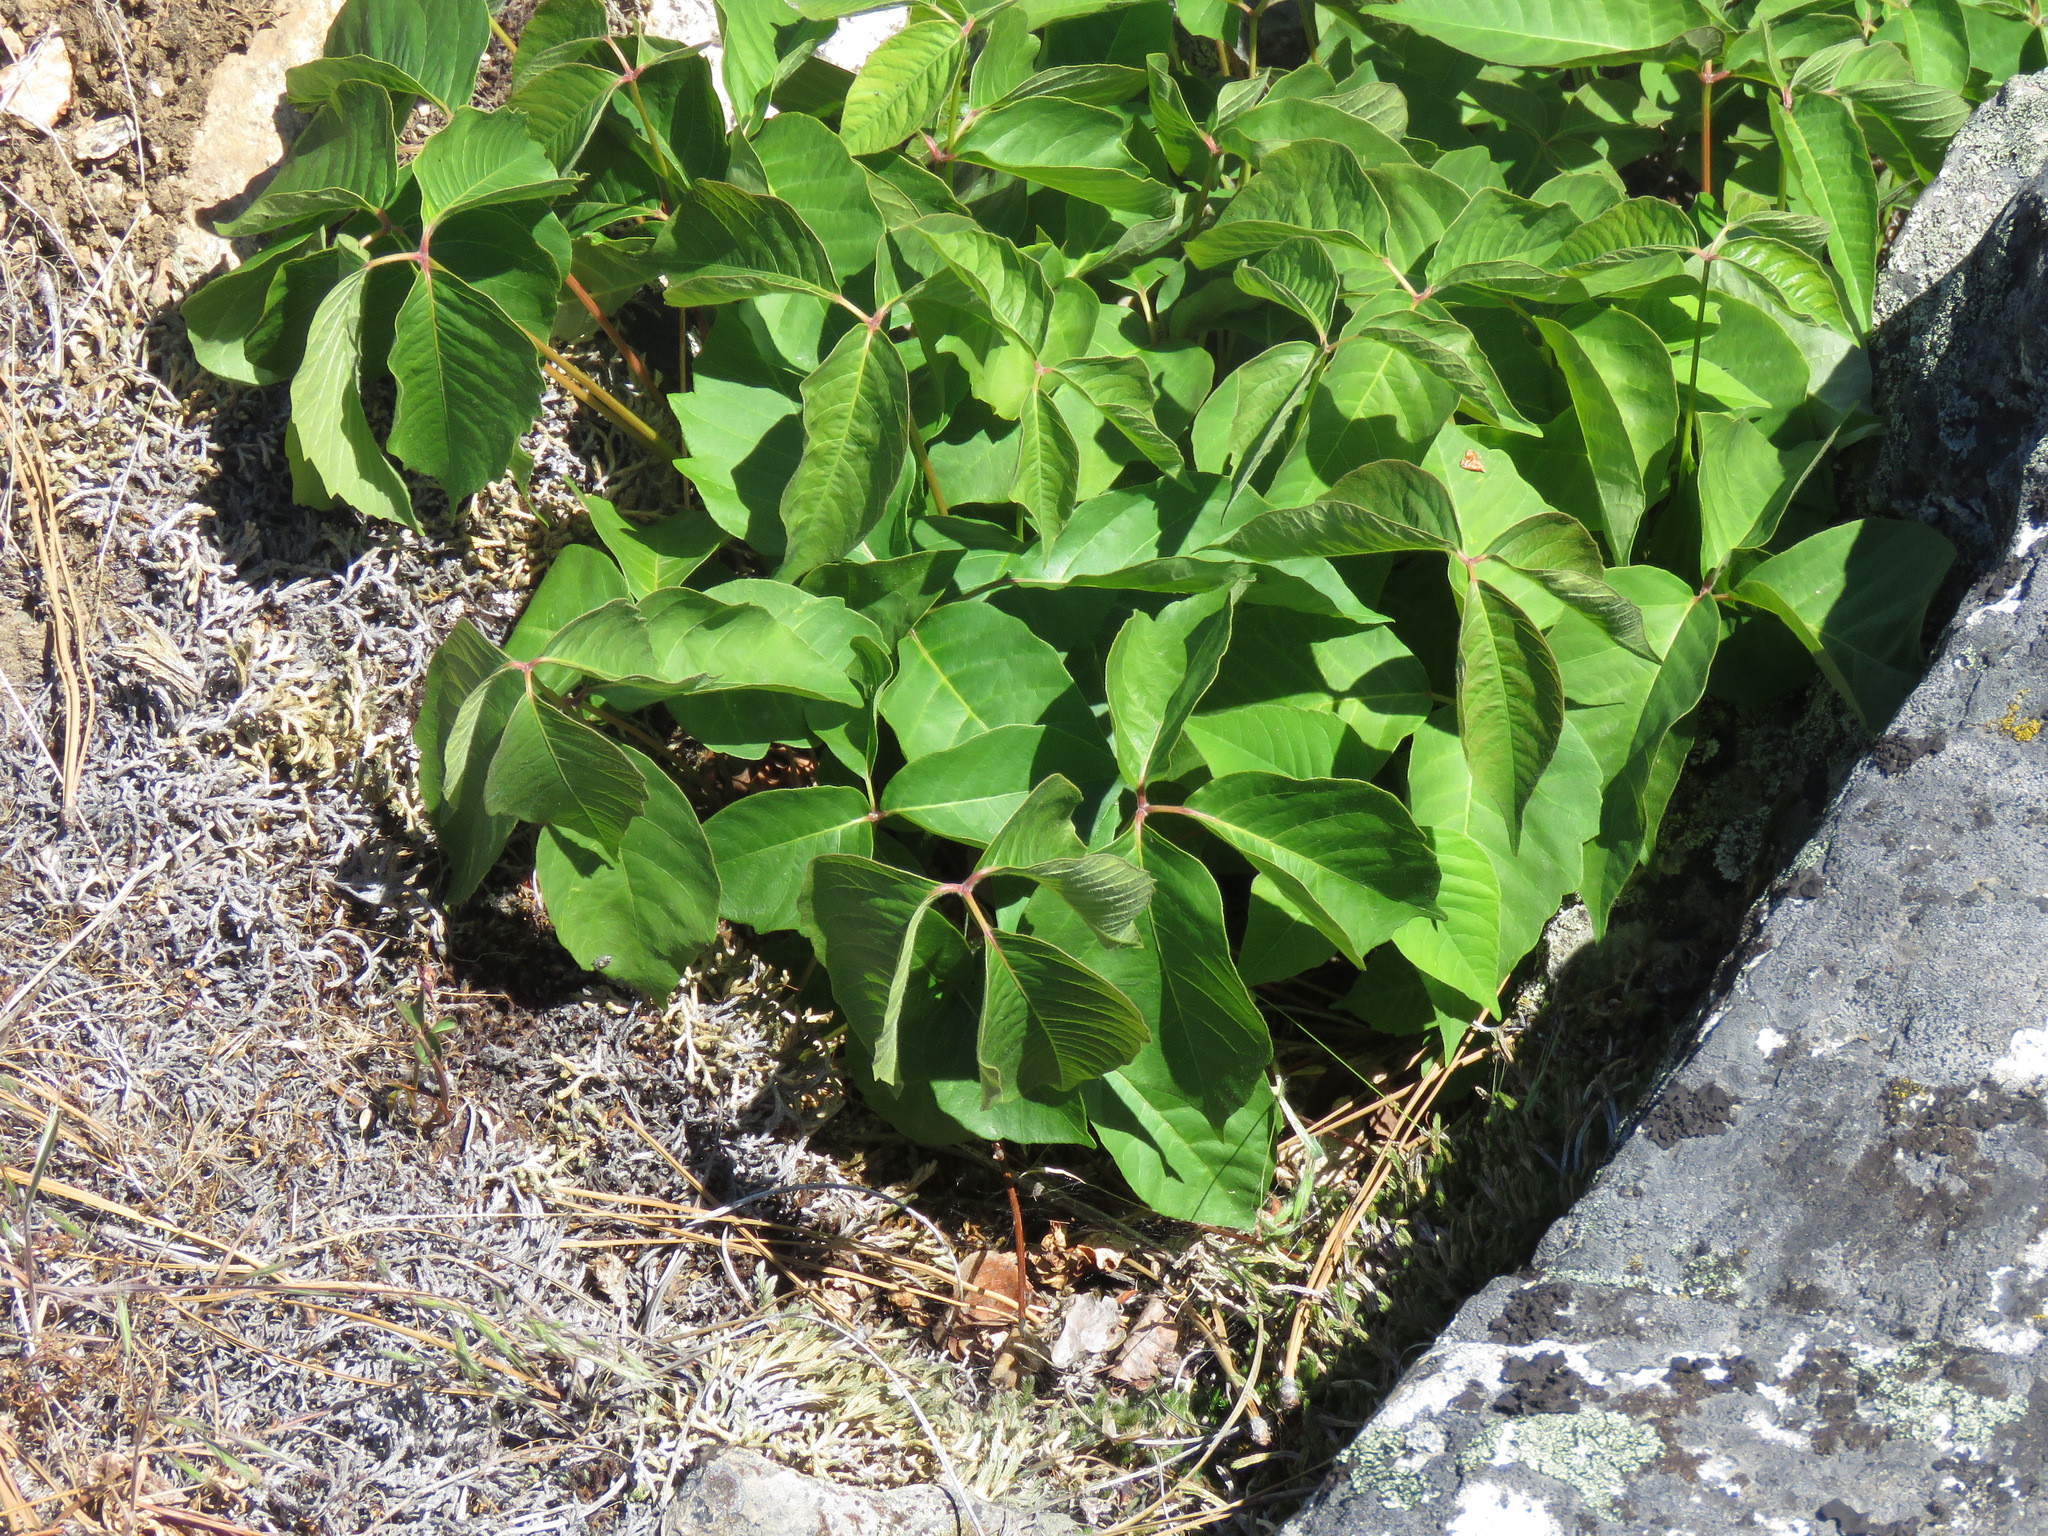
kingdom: Plantae
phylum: Tracheophyta
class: Magnoliopsida
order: Sapindales
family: Anacardiaceae
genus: Toxicodendron
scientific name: Toxicodendron rydbergii
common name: Rydberg's poison-ivy
